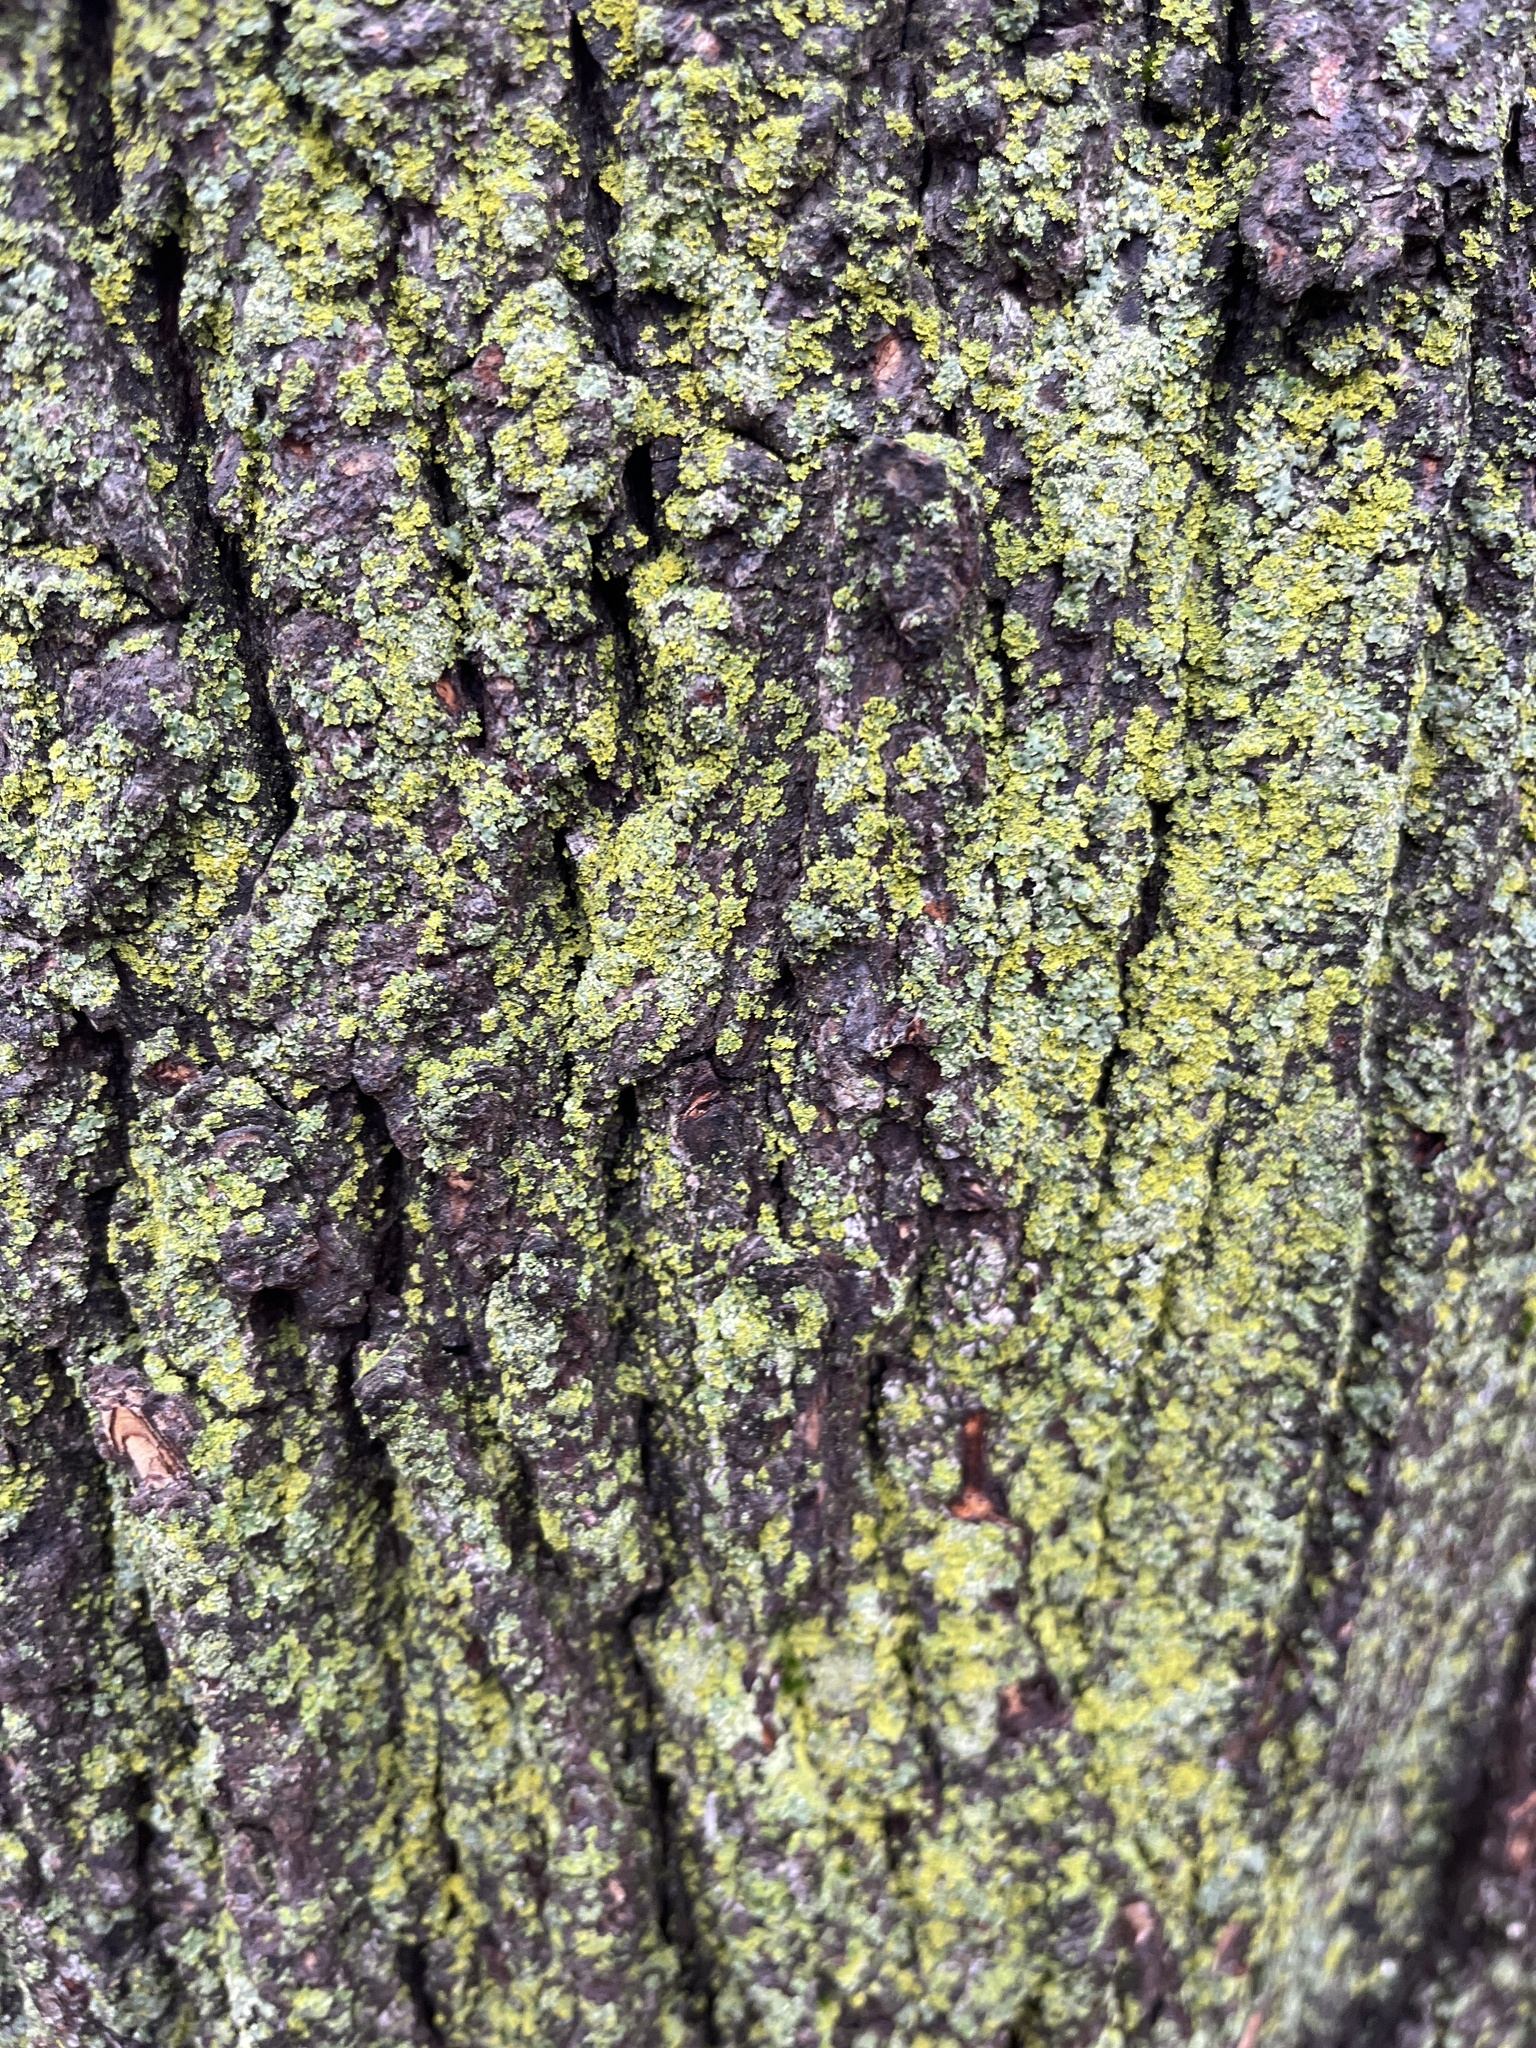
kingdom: Fungi
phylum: Ascomycota
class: Candelariomycetes
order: Candelariales
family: Candelariaceae
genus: Candelaria
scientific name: Candelaria concolor
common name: Candleflame lichen
